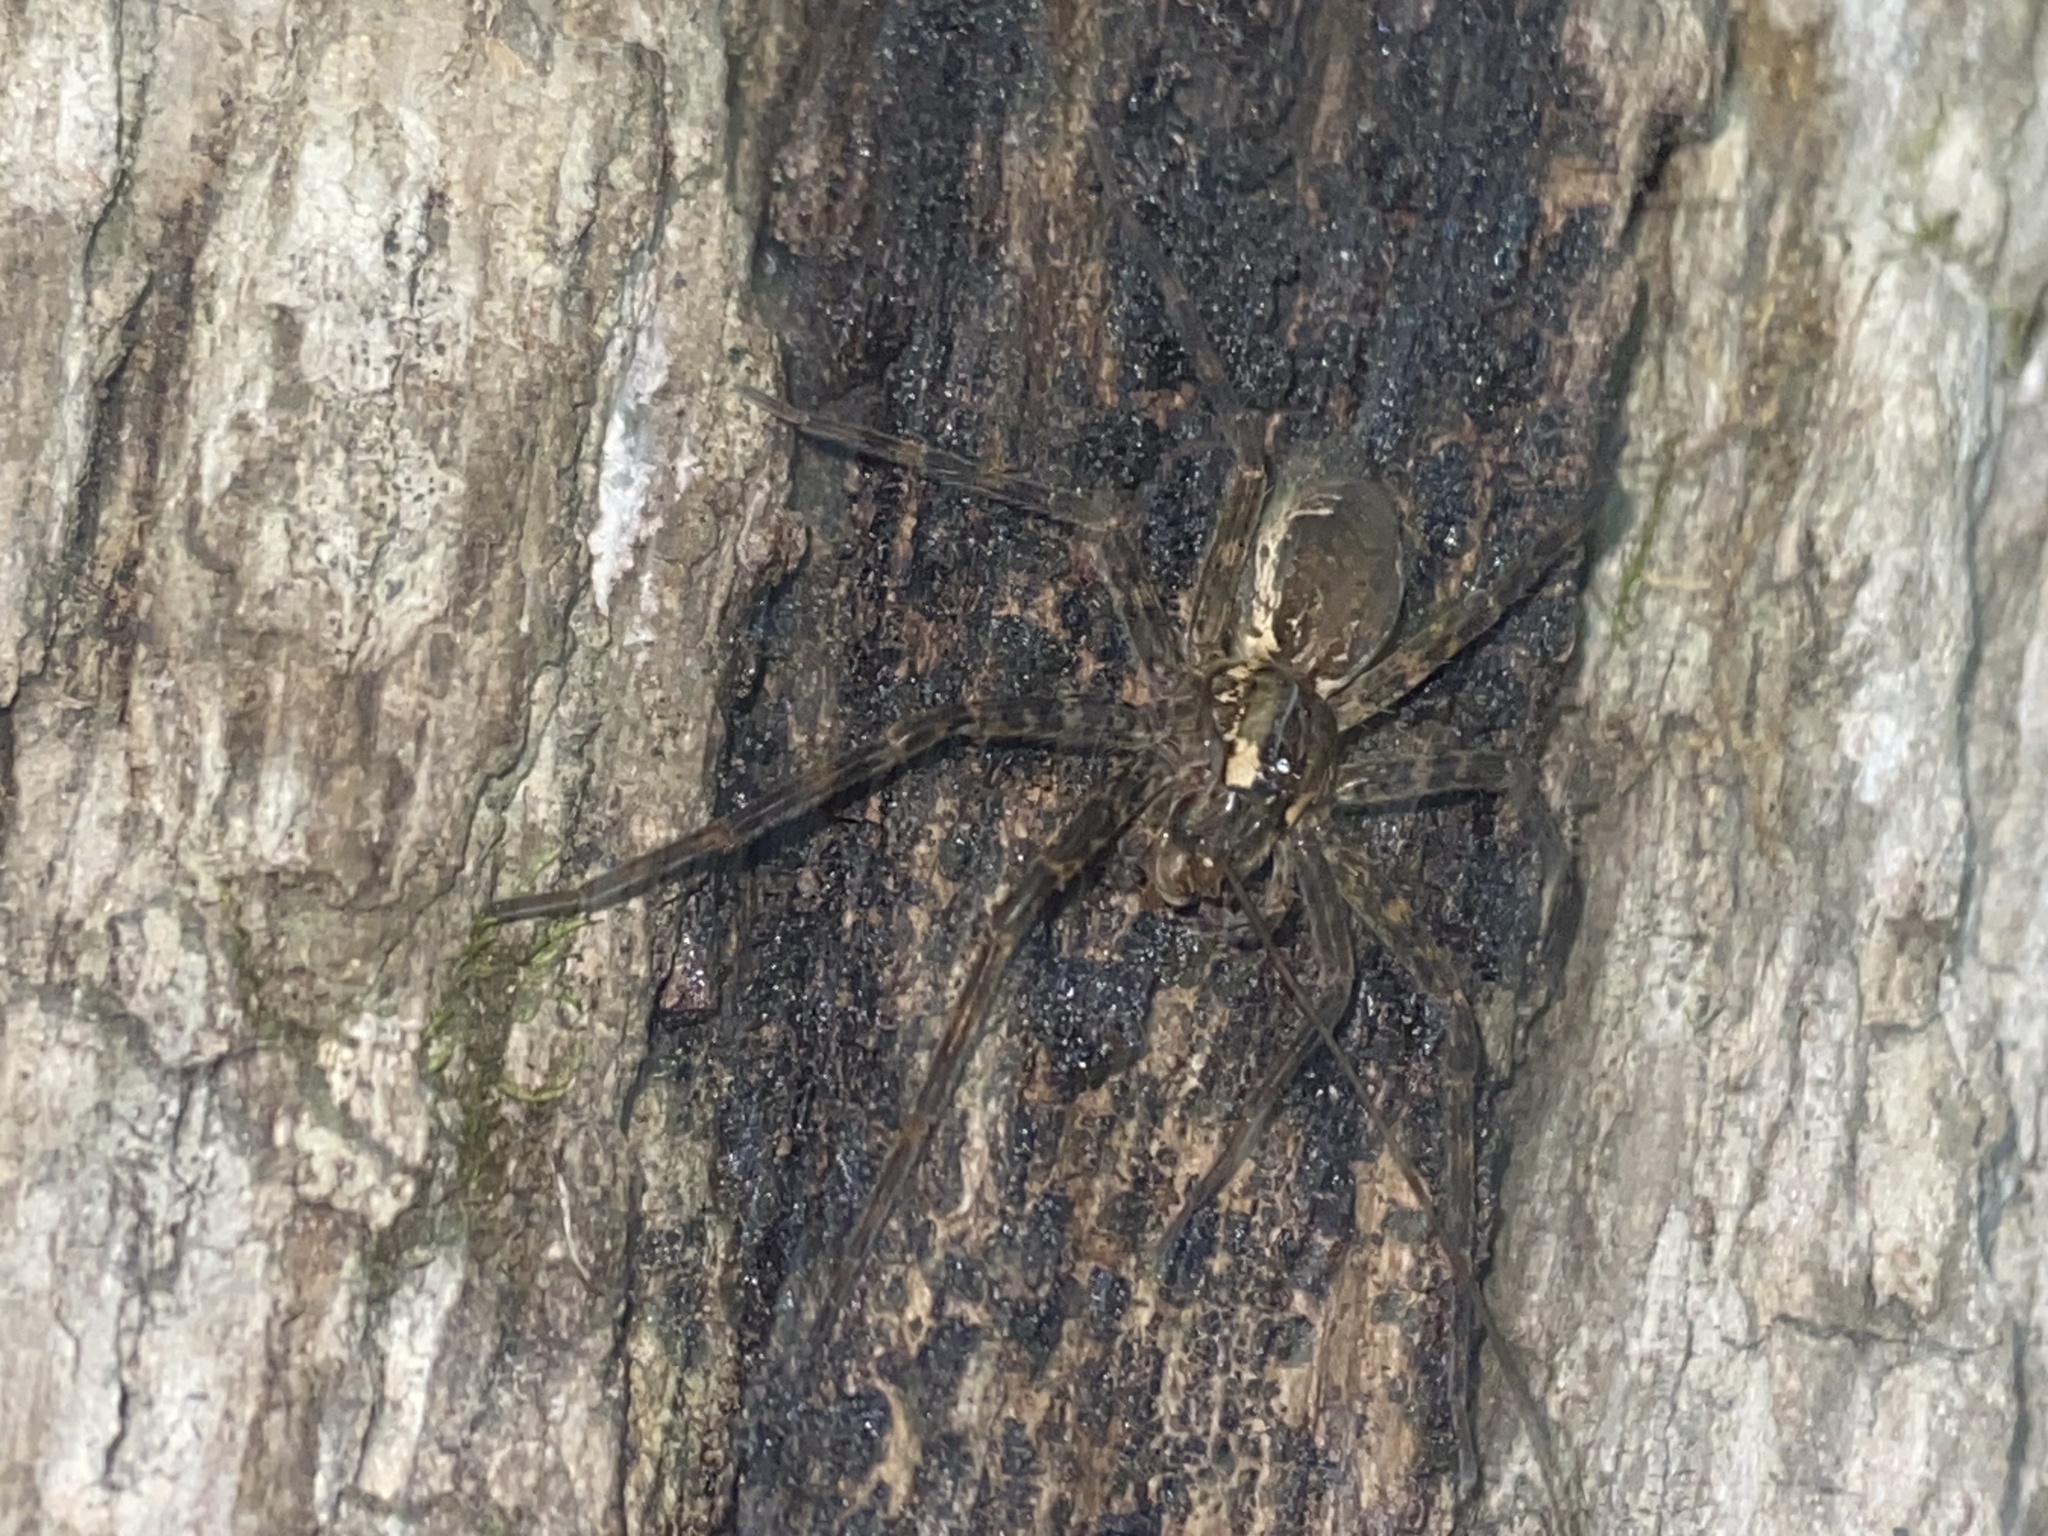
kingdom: Animalia
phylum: Arthropoda
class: Arachnida
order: Araneae
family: Pisauridae
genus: Dolomedes
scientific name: Dolomedes tenebrosus
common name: Dark fishing spider
